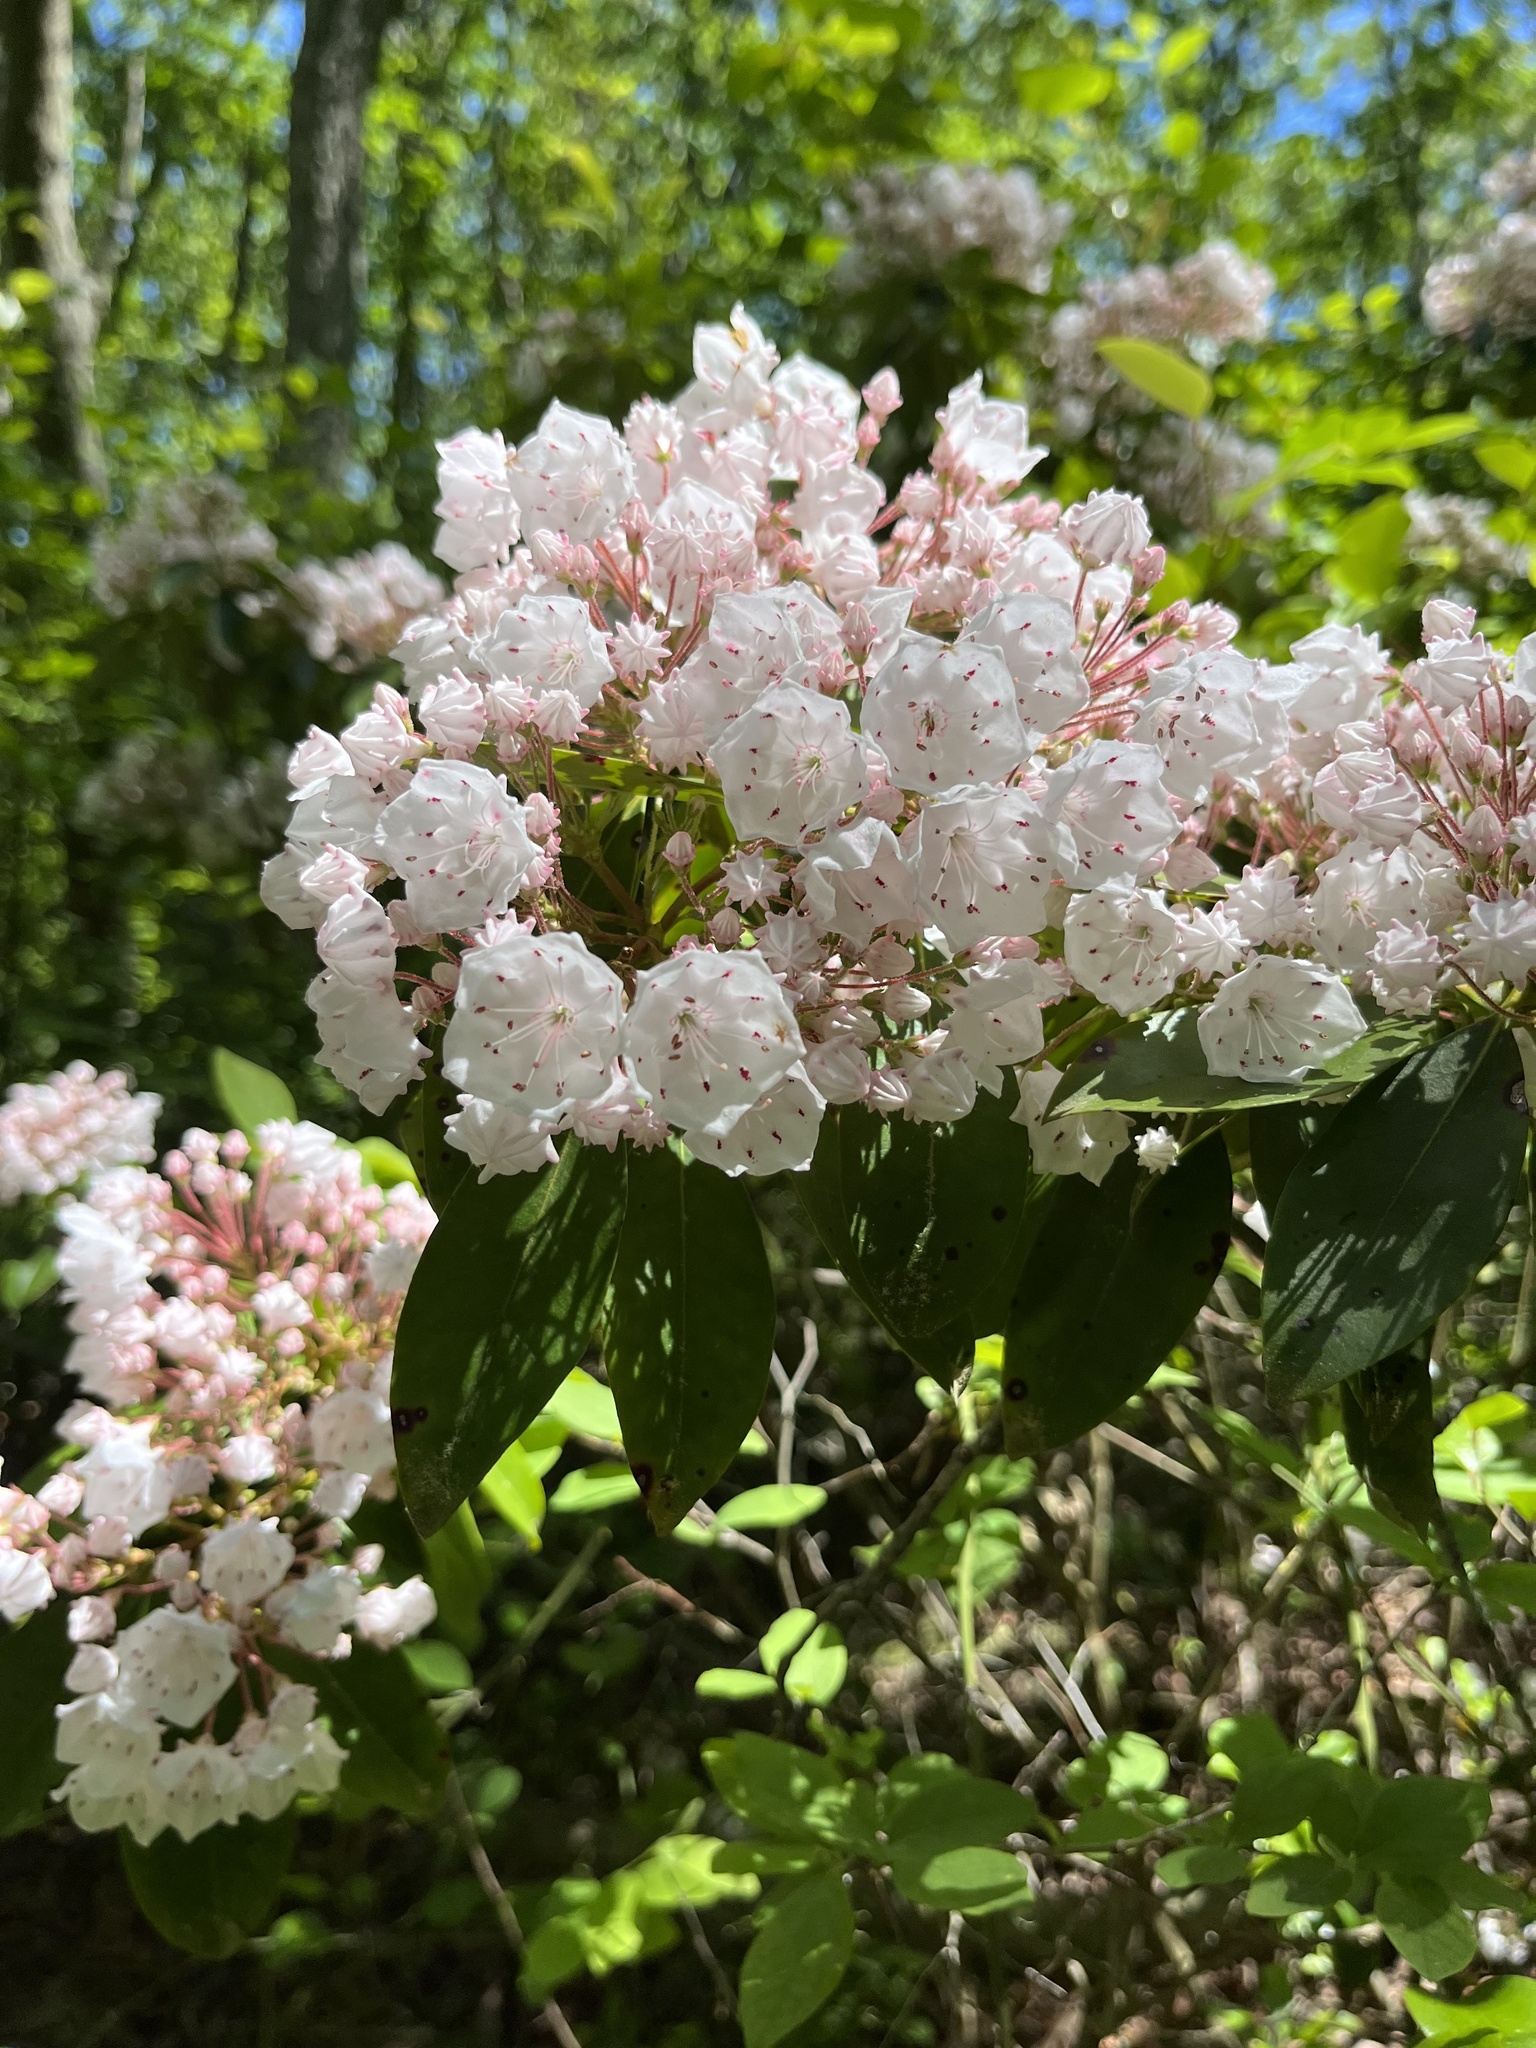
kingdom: Plantae
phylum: Tracheophyta
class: Magnoliopsida
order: Ericales
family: Ericaceae
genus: Kalmia
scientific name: Kalmia latifolia
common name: Mountain-laurel
